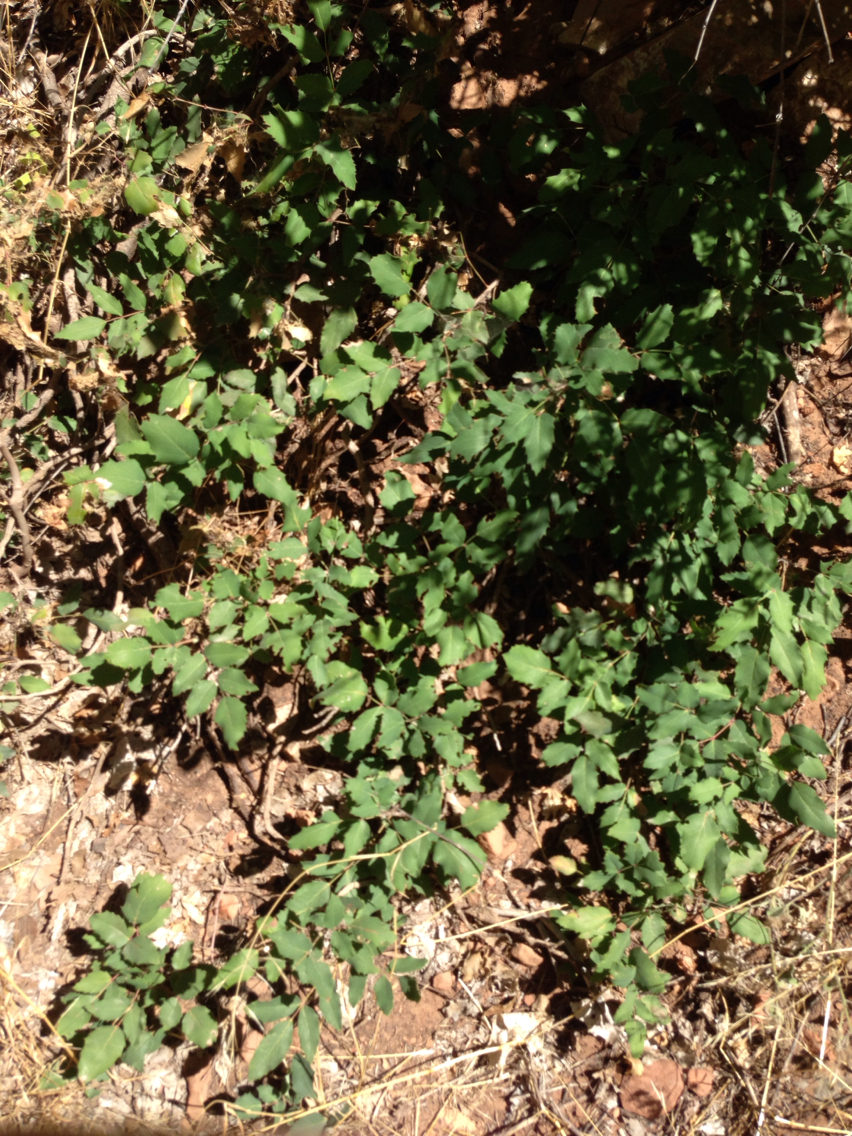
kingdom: Plantae
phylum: Tracheophyta
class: Magnoliopsida
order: Ranunculales
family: Berberidaceae
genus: Mahonia
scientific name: Mahonia repens
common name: Creeping oregon-grape
